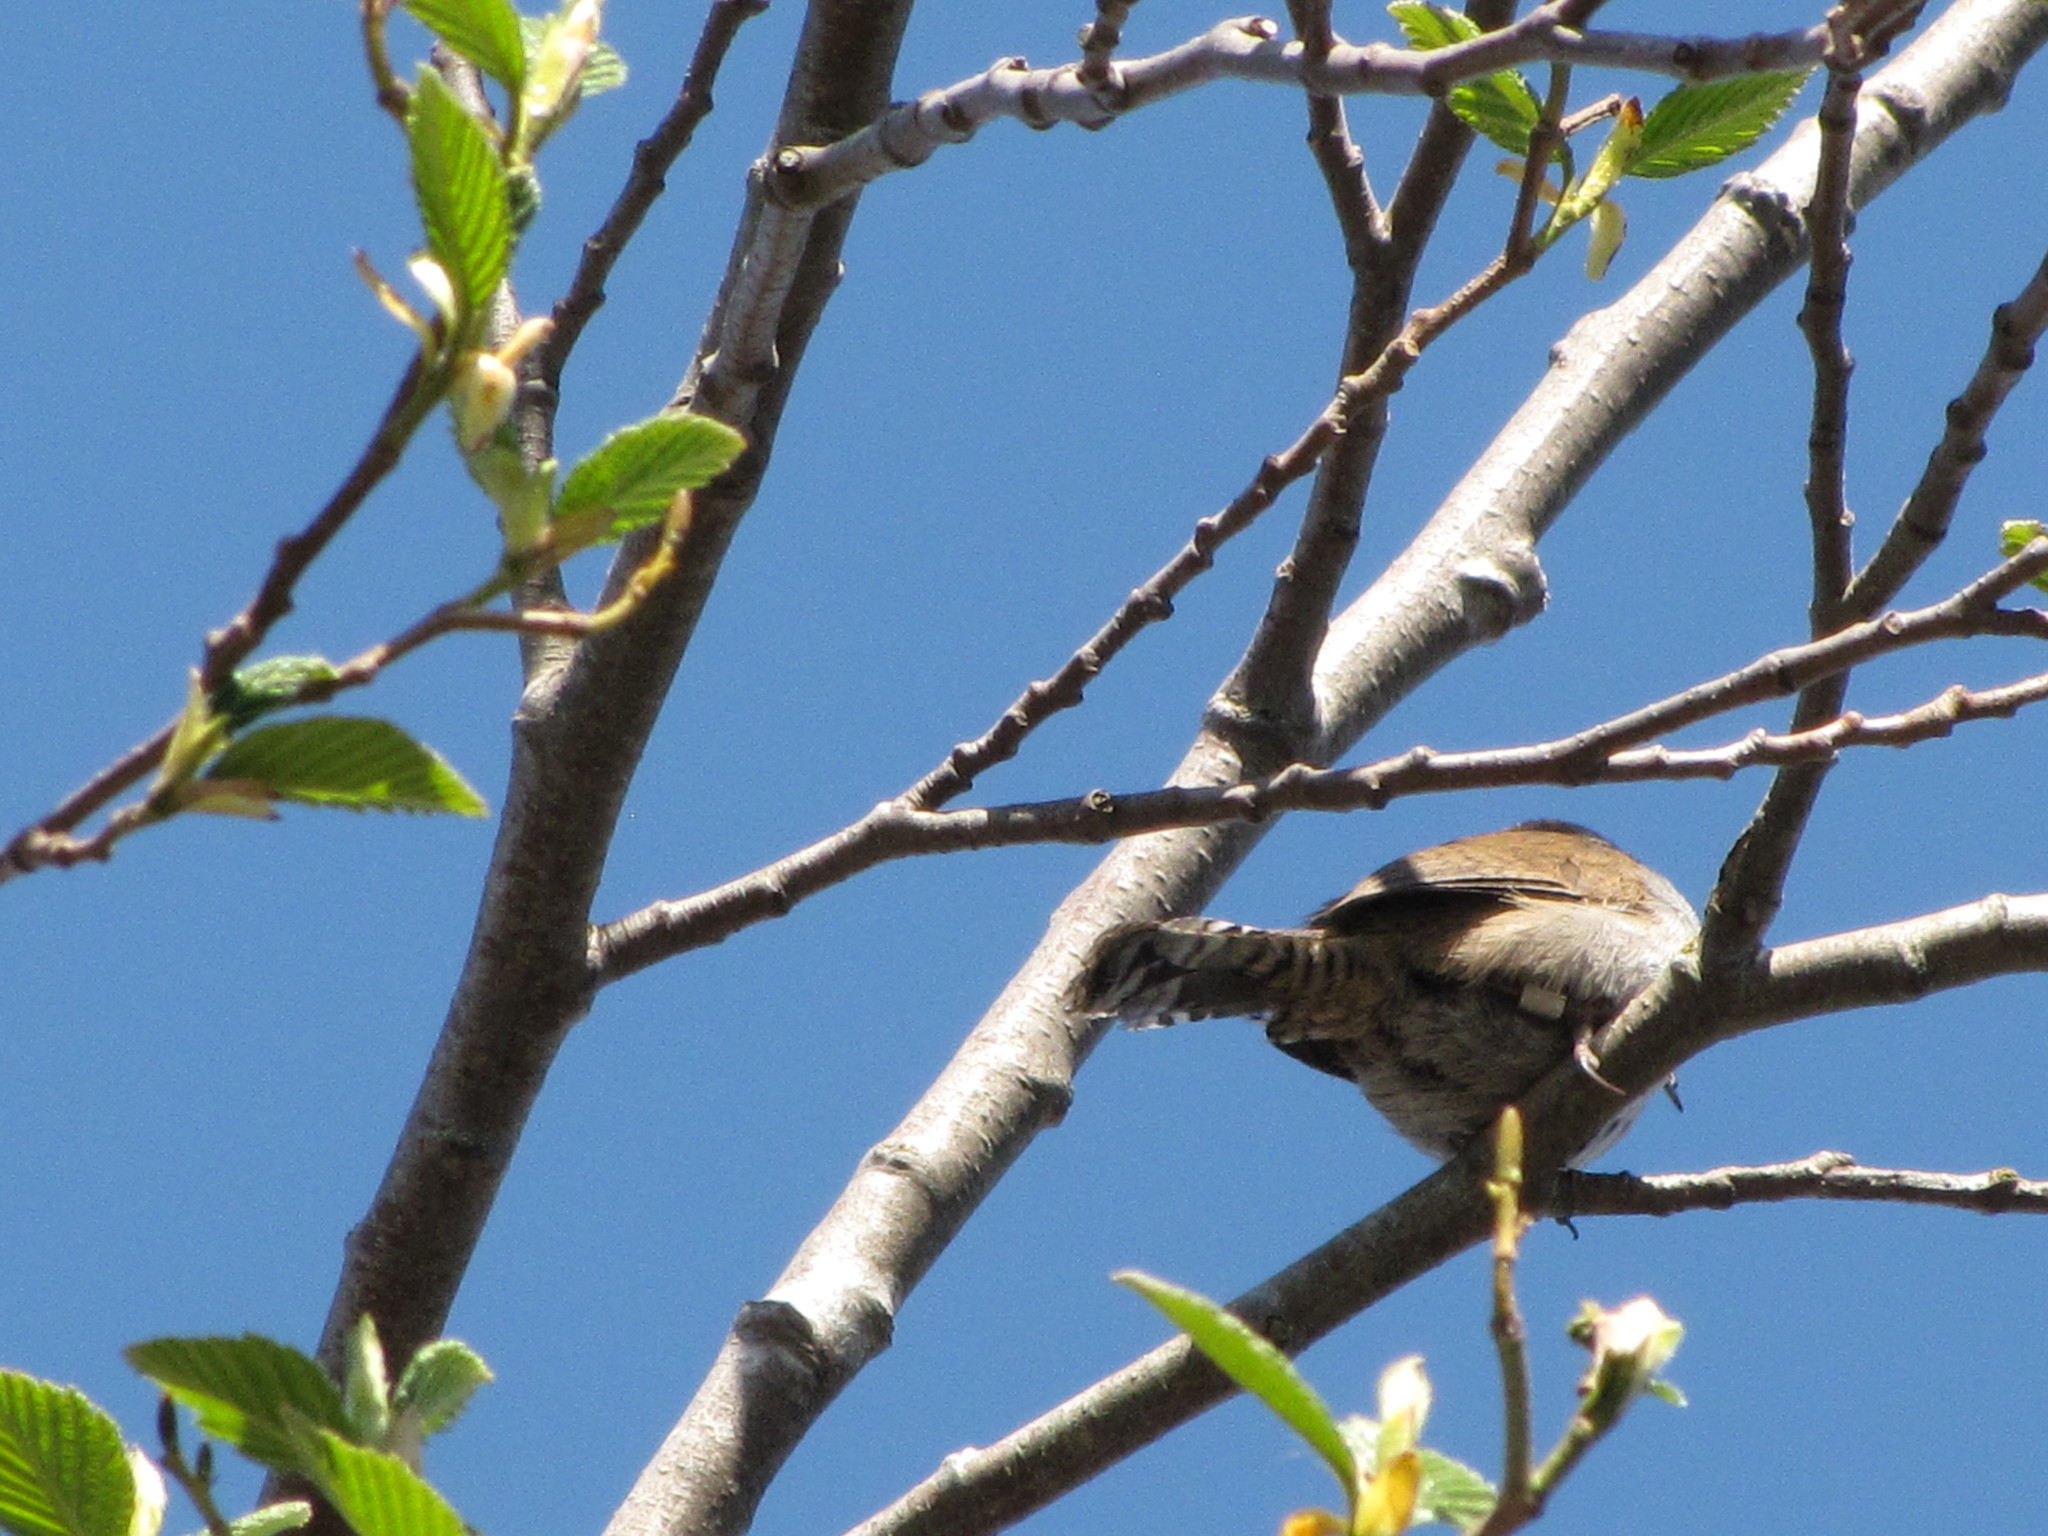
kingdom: Animalia
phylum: Chordata
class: Aves
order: Passeriformes
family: Troglodytidae
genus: Thryomanes
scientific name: Thryomanes bewickii
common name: Bewick's wren
